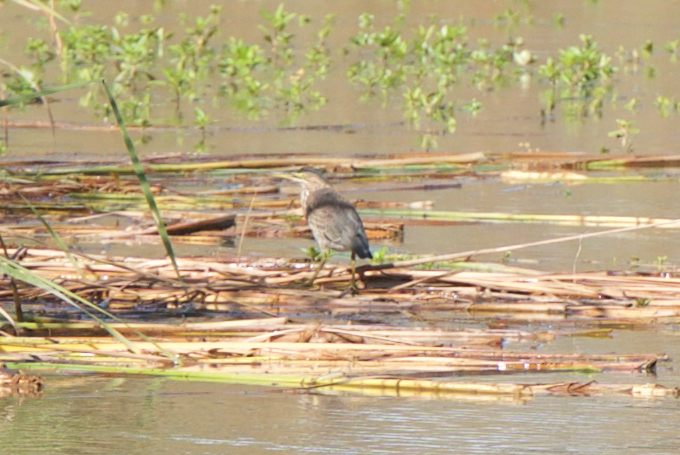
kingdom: Animalia
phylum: Chordata
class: Aves
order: Pelecaniformes
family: Ardeidae
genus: Butorides
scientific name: Butorides virescens
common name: Green heron
